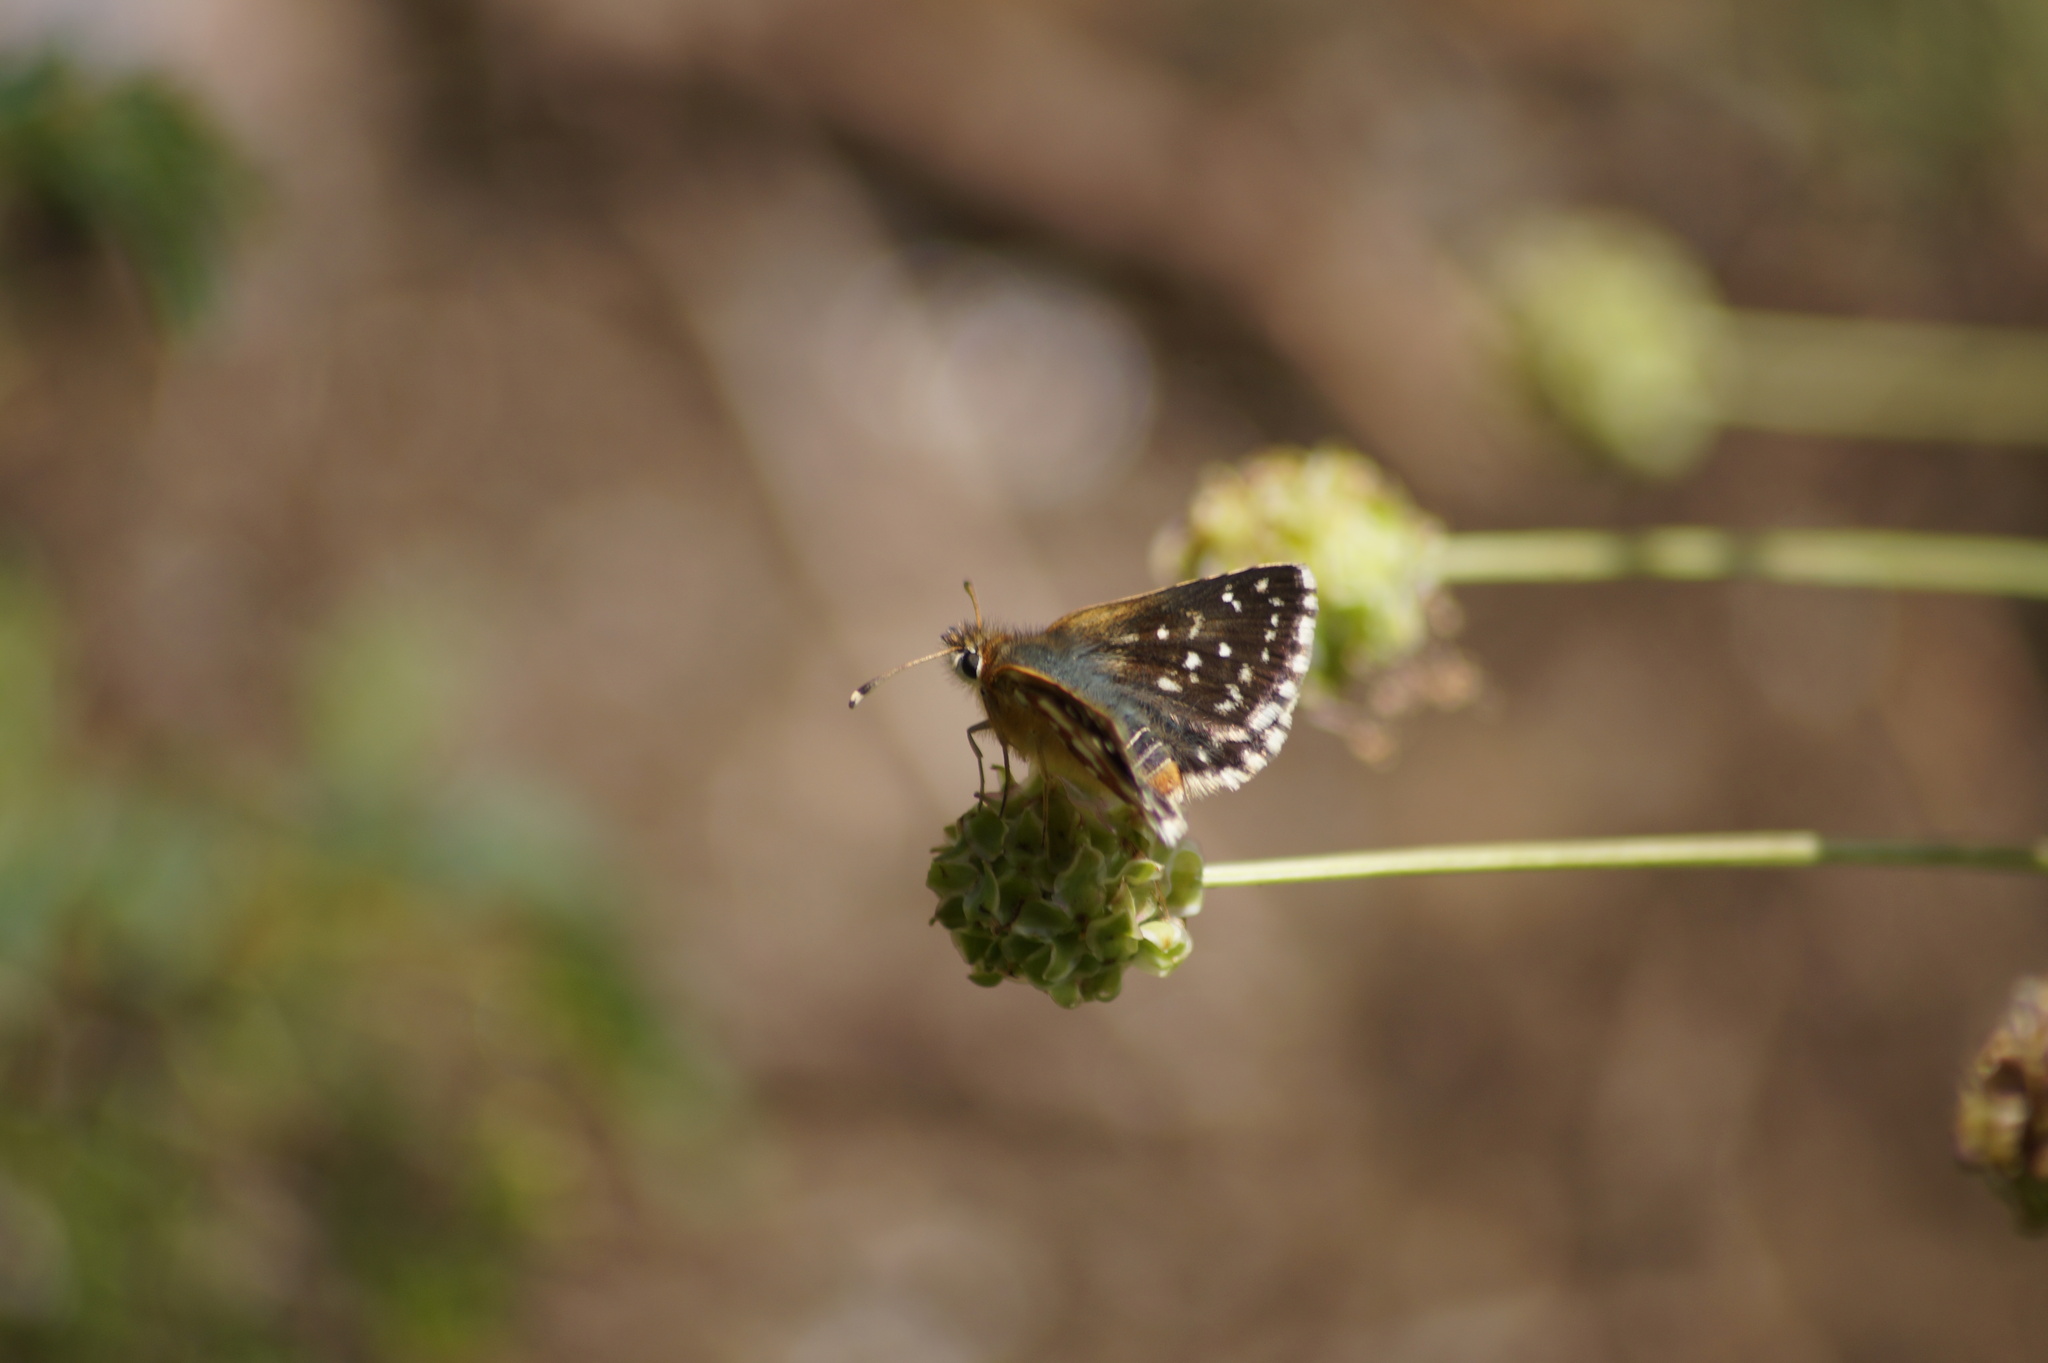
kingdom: Animalia
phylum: Arthropoda
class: Insecta
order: Lepidoptera
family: Hesperiidae
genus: Spialia
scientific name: Spialia sertorius
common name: Red underwing skipper
